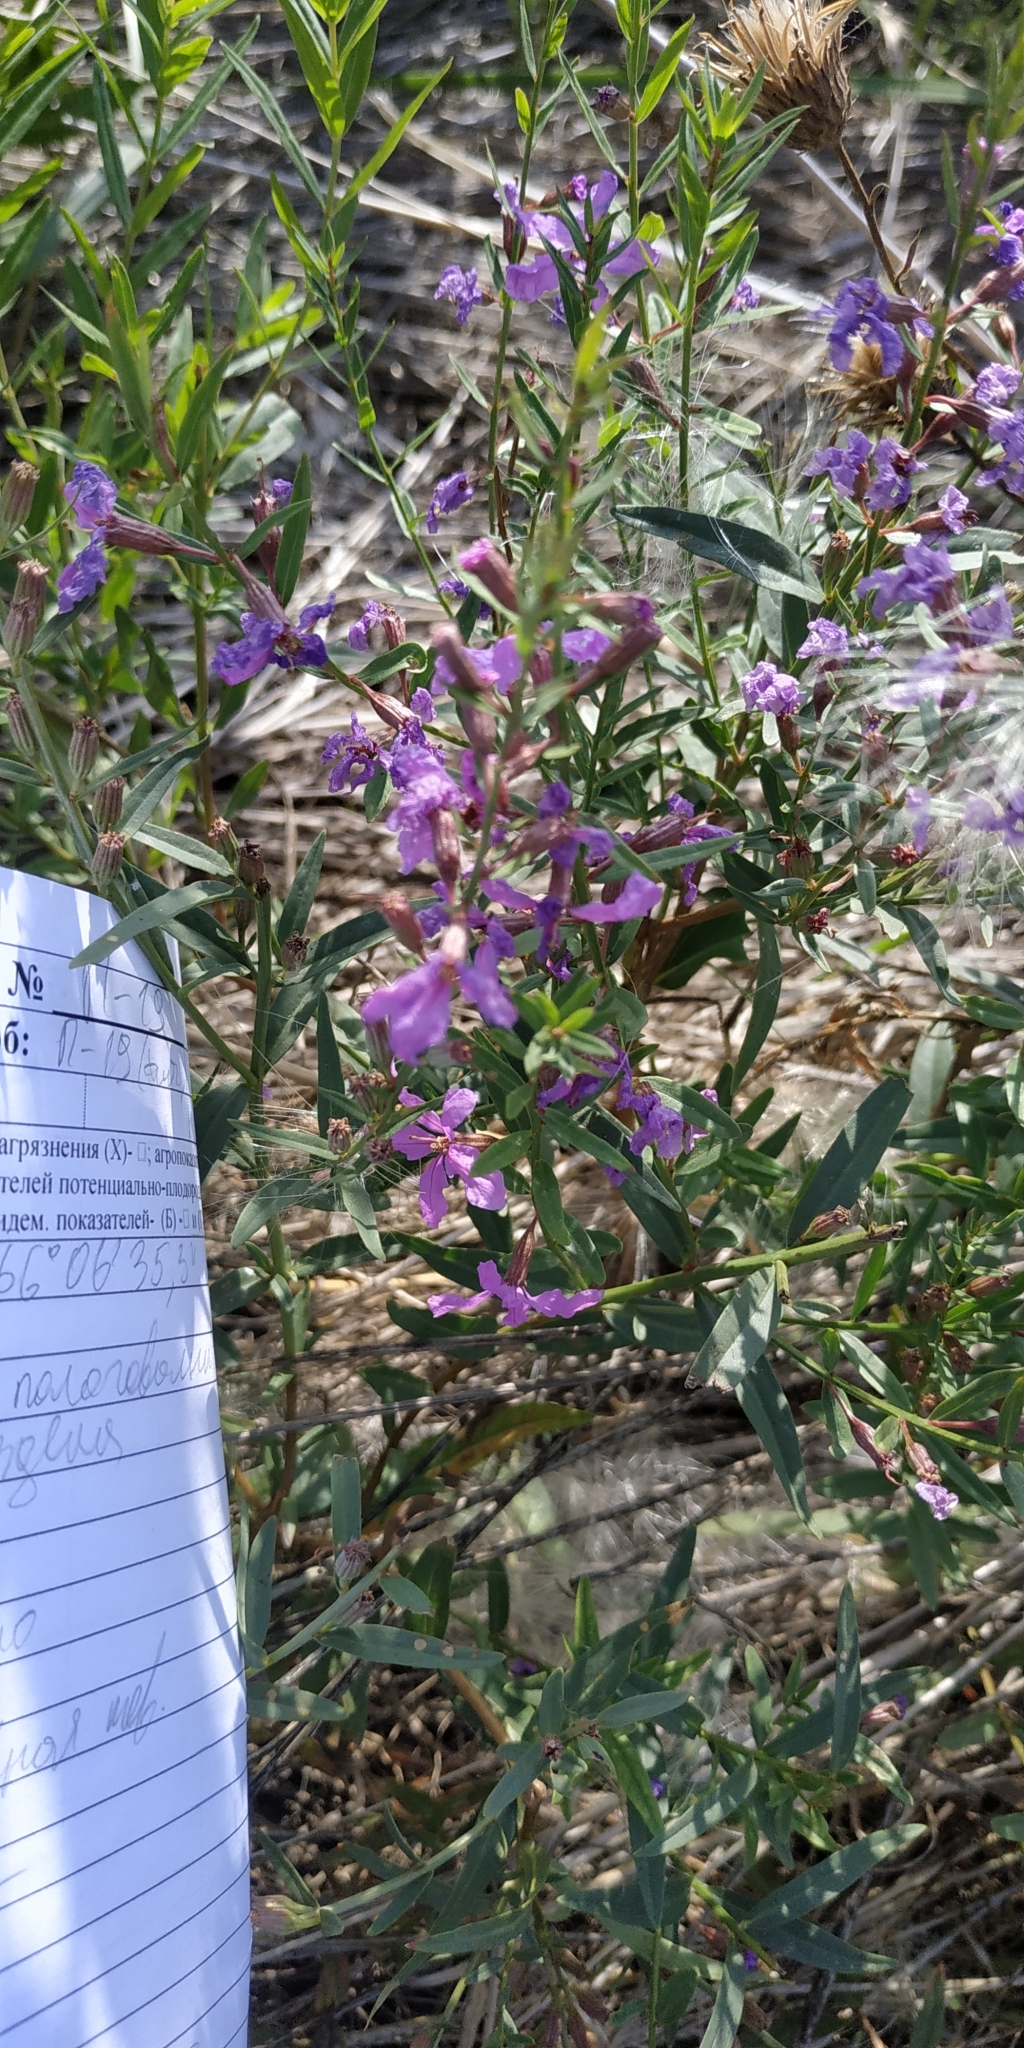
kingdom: Plantae
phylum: Tracheophyta
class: Magnoliopsida
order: Myrtales
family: Lythraceae
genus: Lythrum
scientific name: Lythrum virgatum
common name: European wand loosestrife
